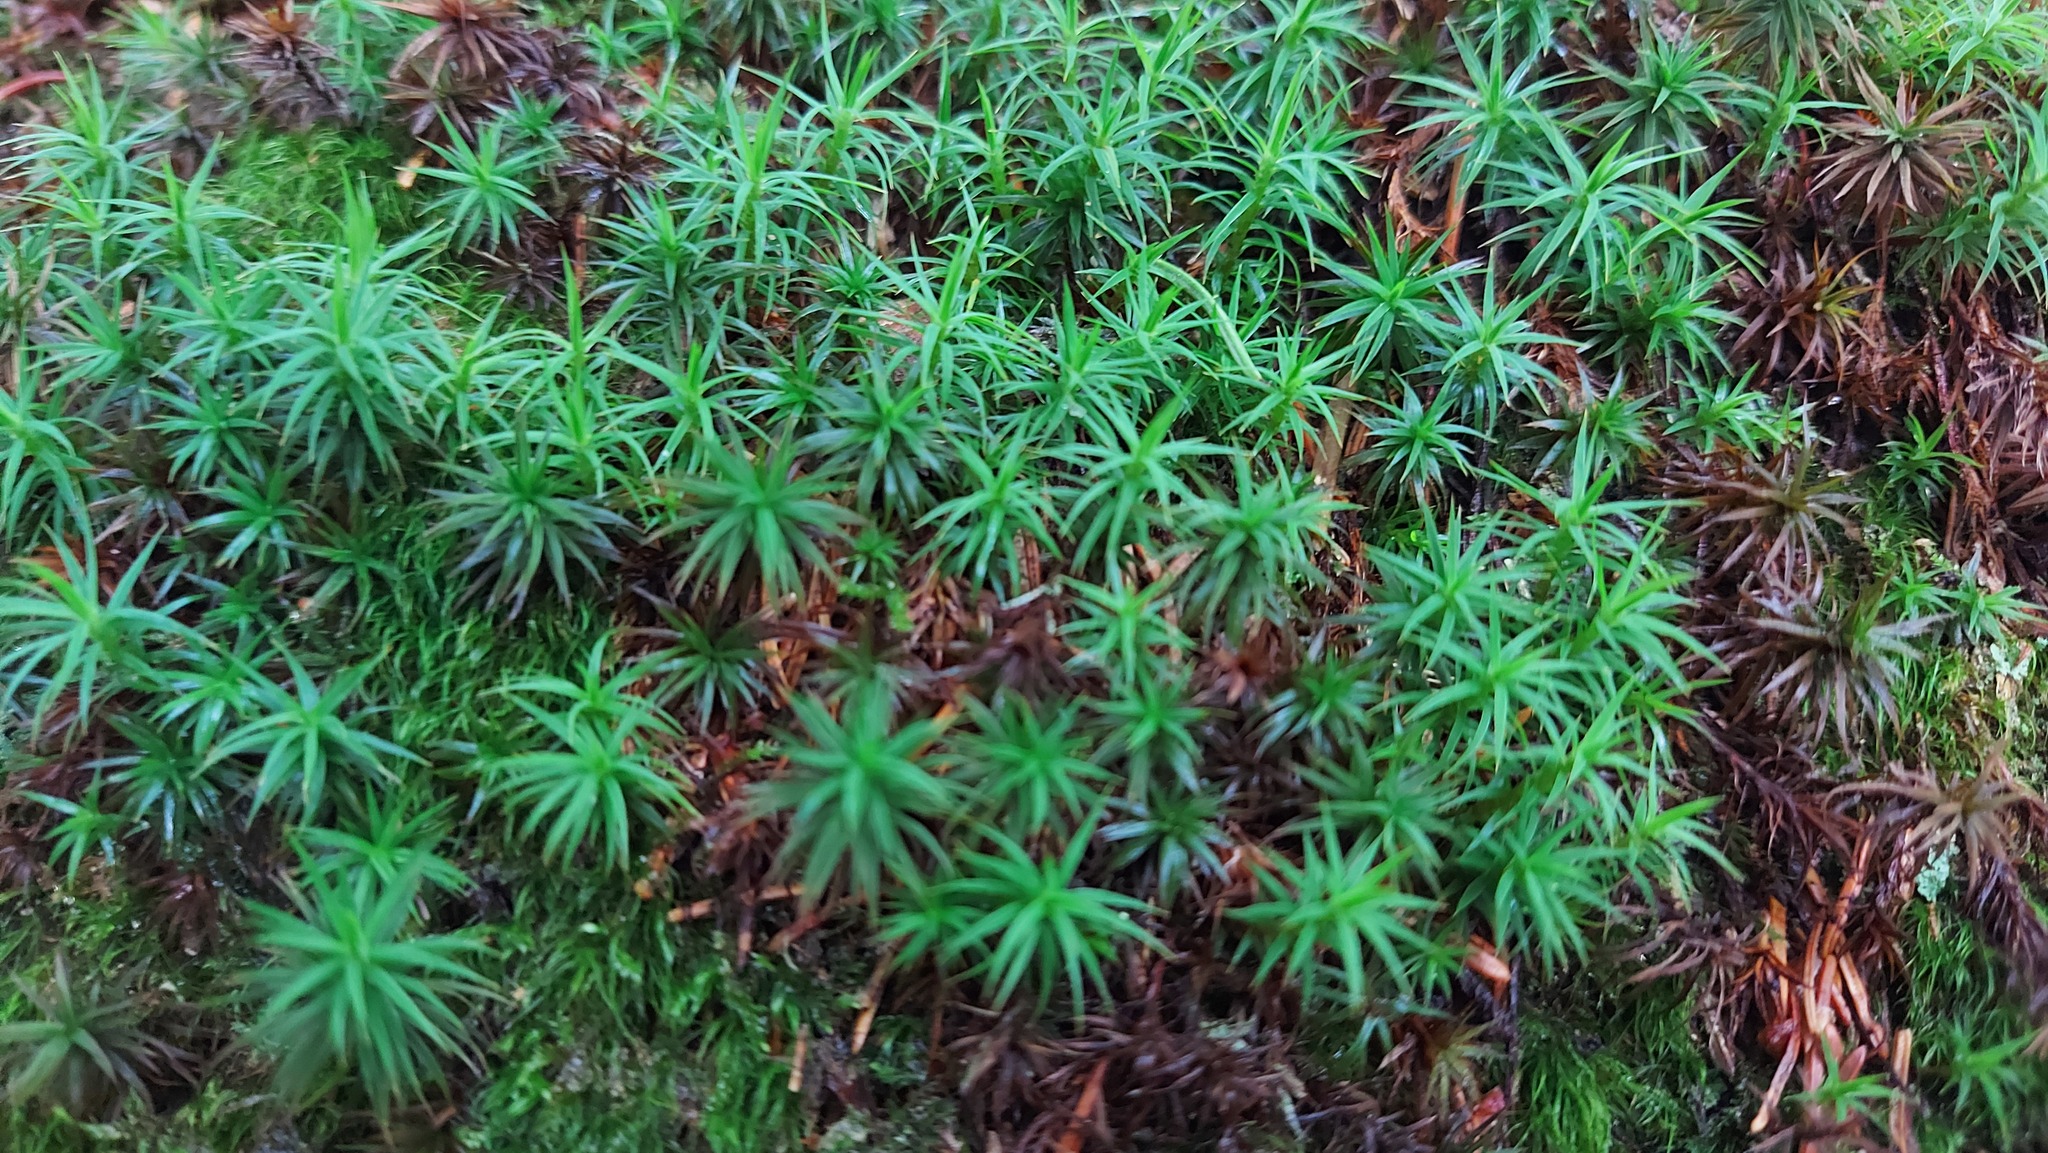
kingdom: Plantae
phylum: Bryophyta
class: Polytrichopsida
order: Polytrichales
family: Polytrichaceae
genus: Polytrichum
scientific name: Polytrichum formosum
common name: Bank haircap moss
